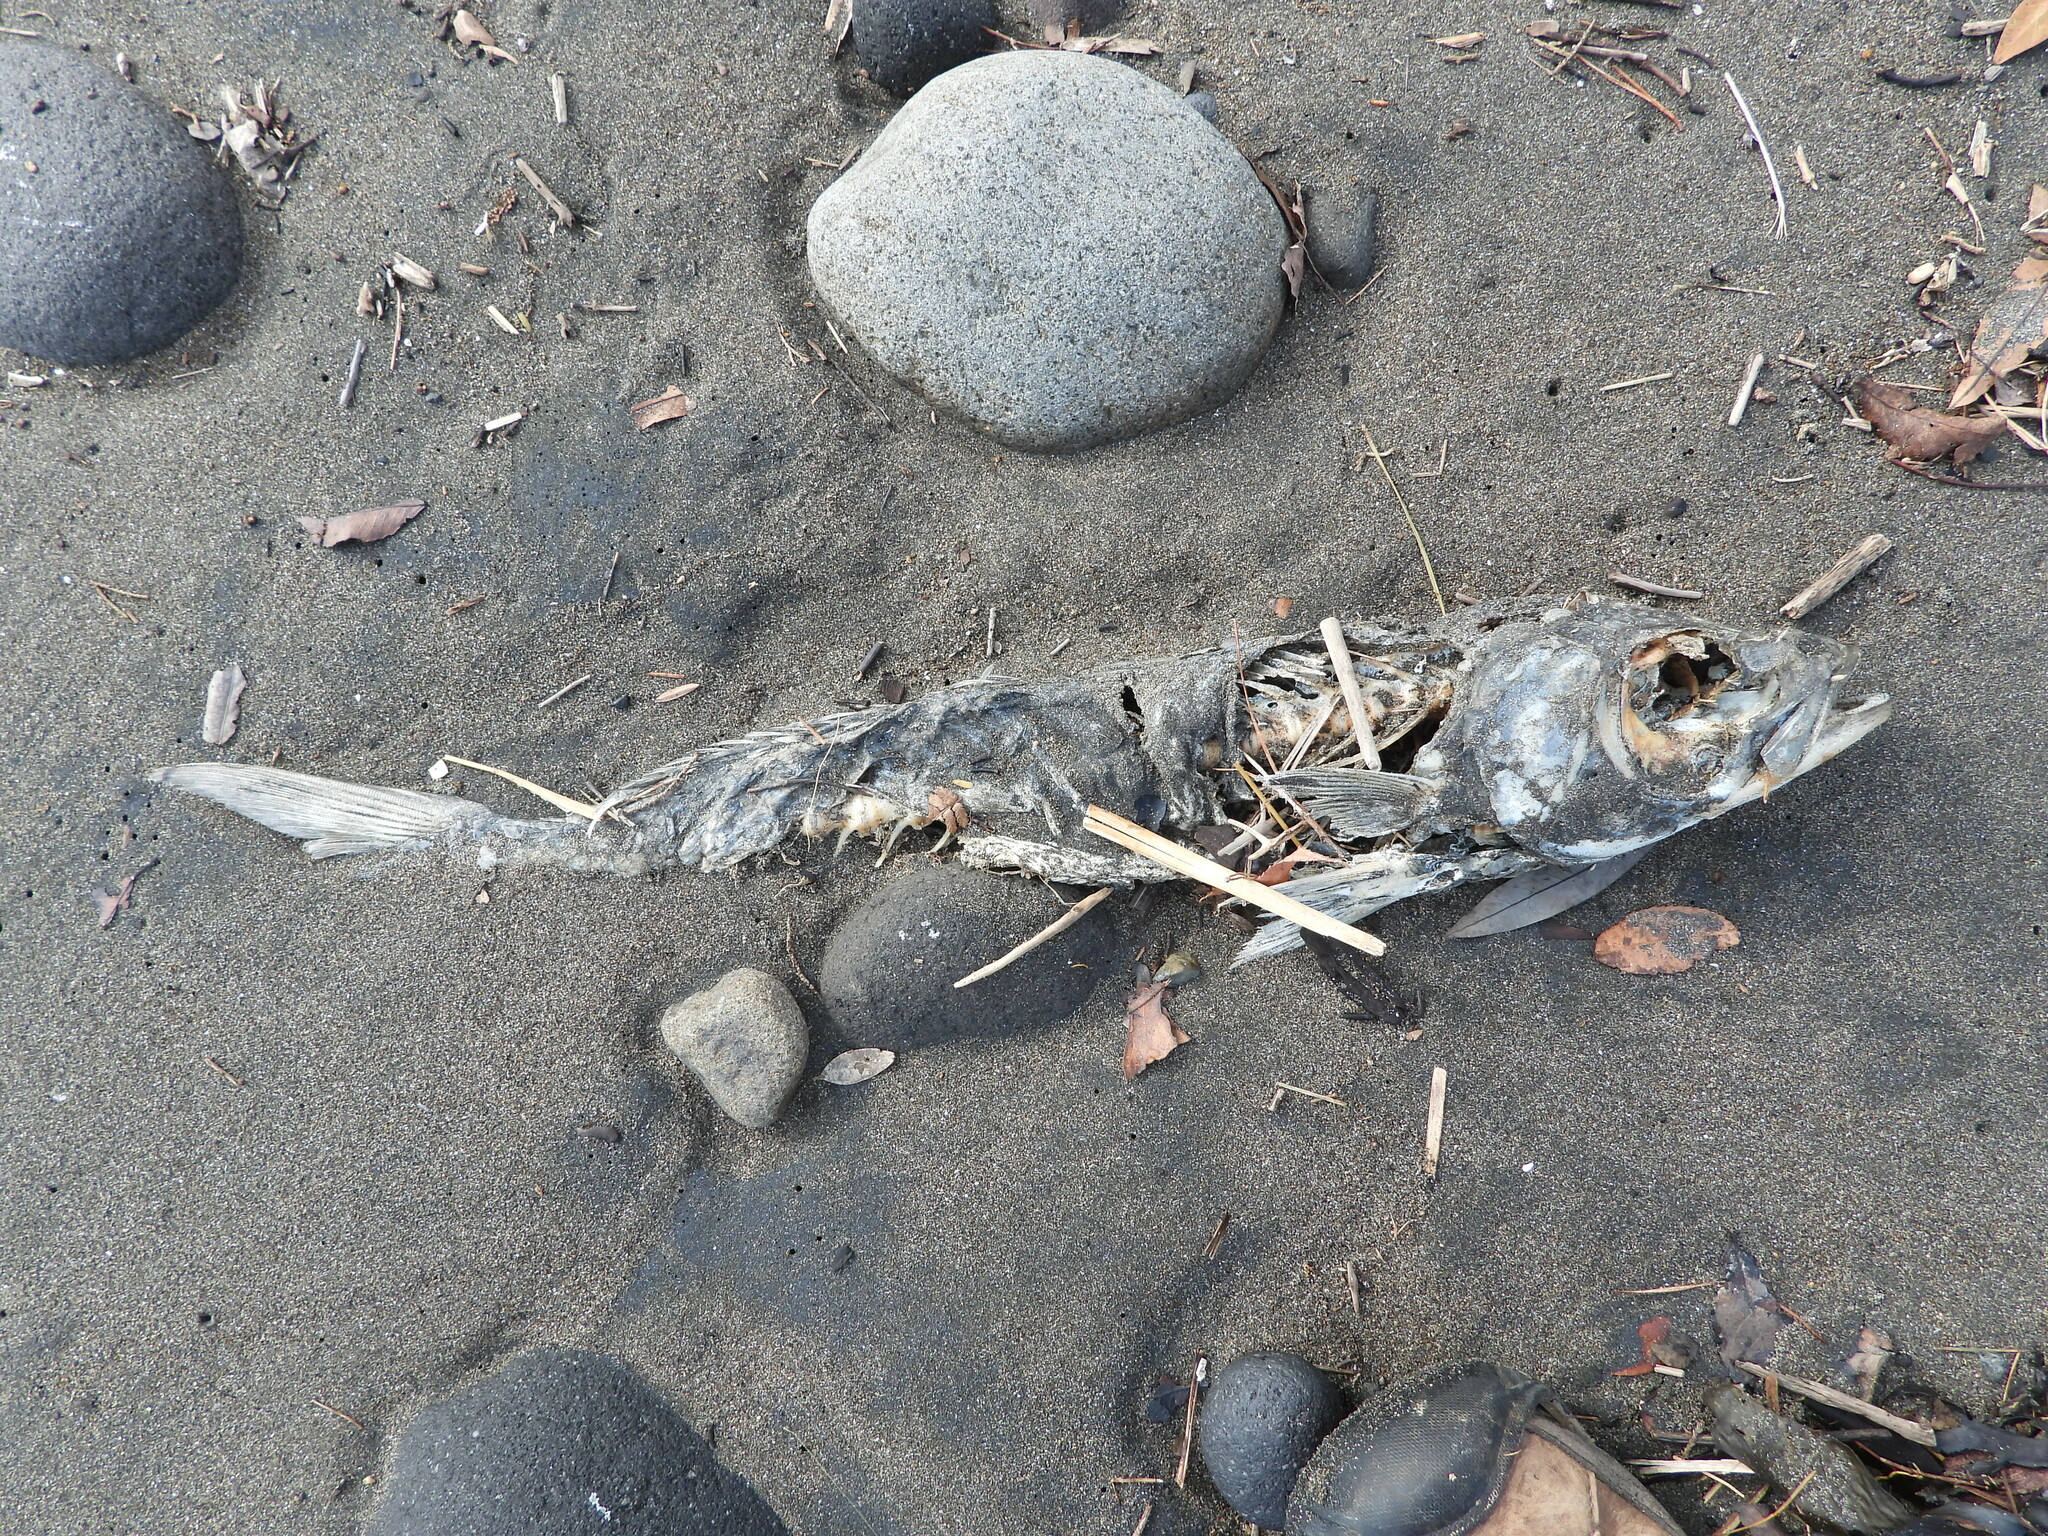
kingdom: Animalia
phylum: Chordata
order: Perciformes
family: Arripidae
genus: Arripis
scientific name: Arripis trutta
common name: Kahawai
